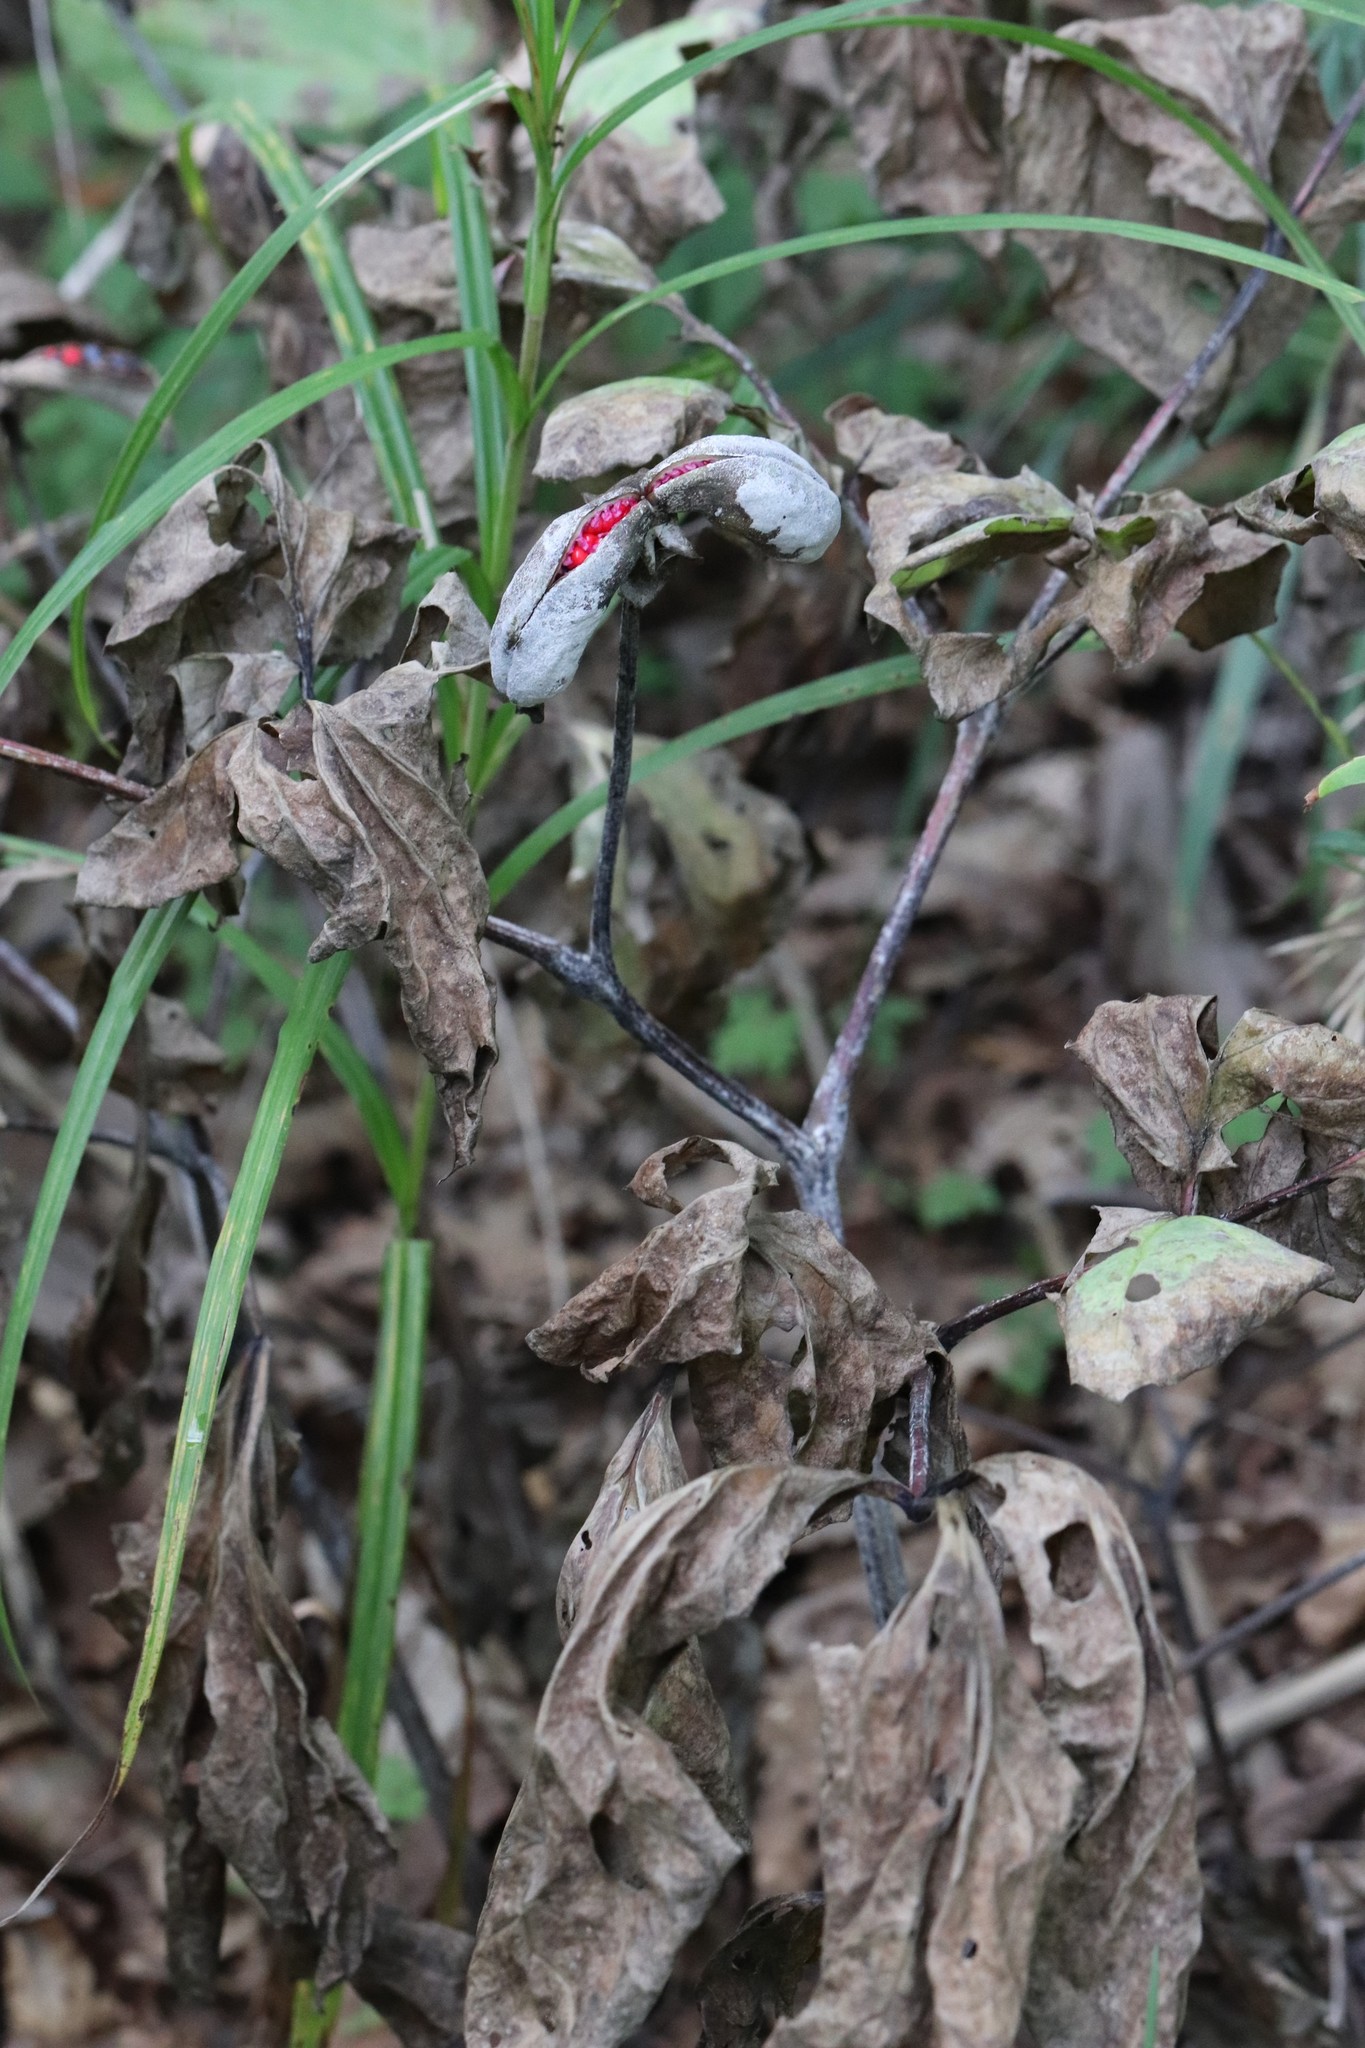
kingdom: Plantae
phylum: Tracheophyta
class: Magnoliopsida
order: Saxifragales
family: Paeoniaceae
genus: Paeonia
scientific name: Paeonia obovata
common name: Chinese peony
